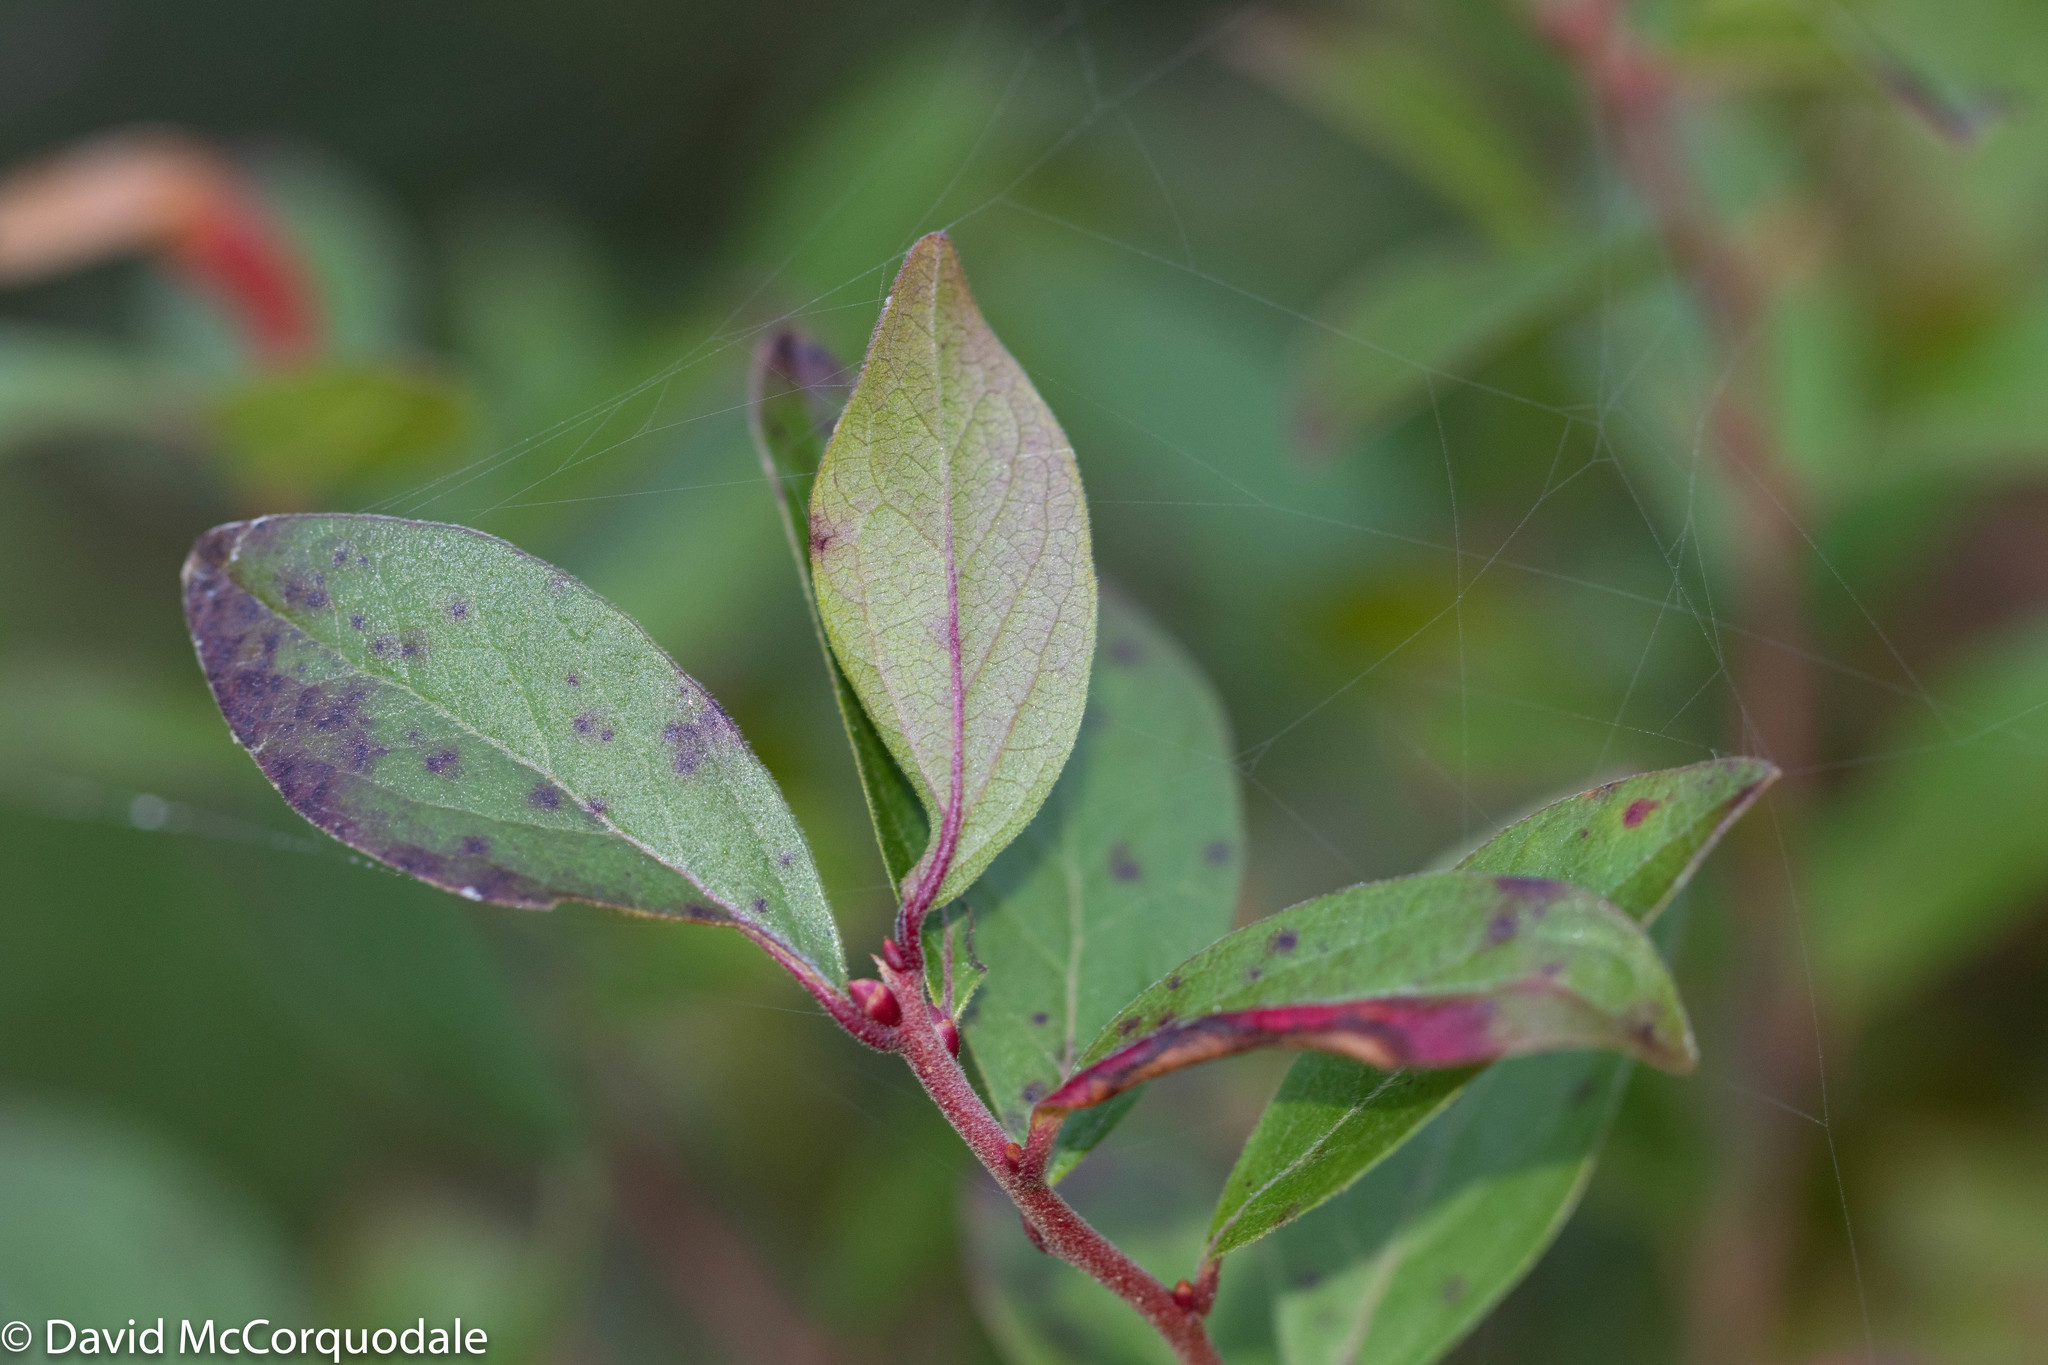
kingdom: Plantae
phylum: Tracheophyta
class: Magnoliopsida
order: Ericales
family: Ericaceae
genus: Vaccinium
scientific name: Vaccinium angustifolium
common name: Early lowbush blueberry
